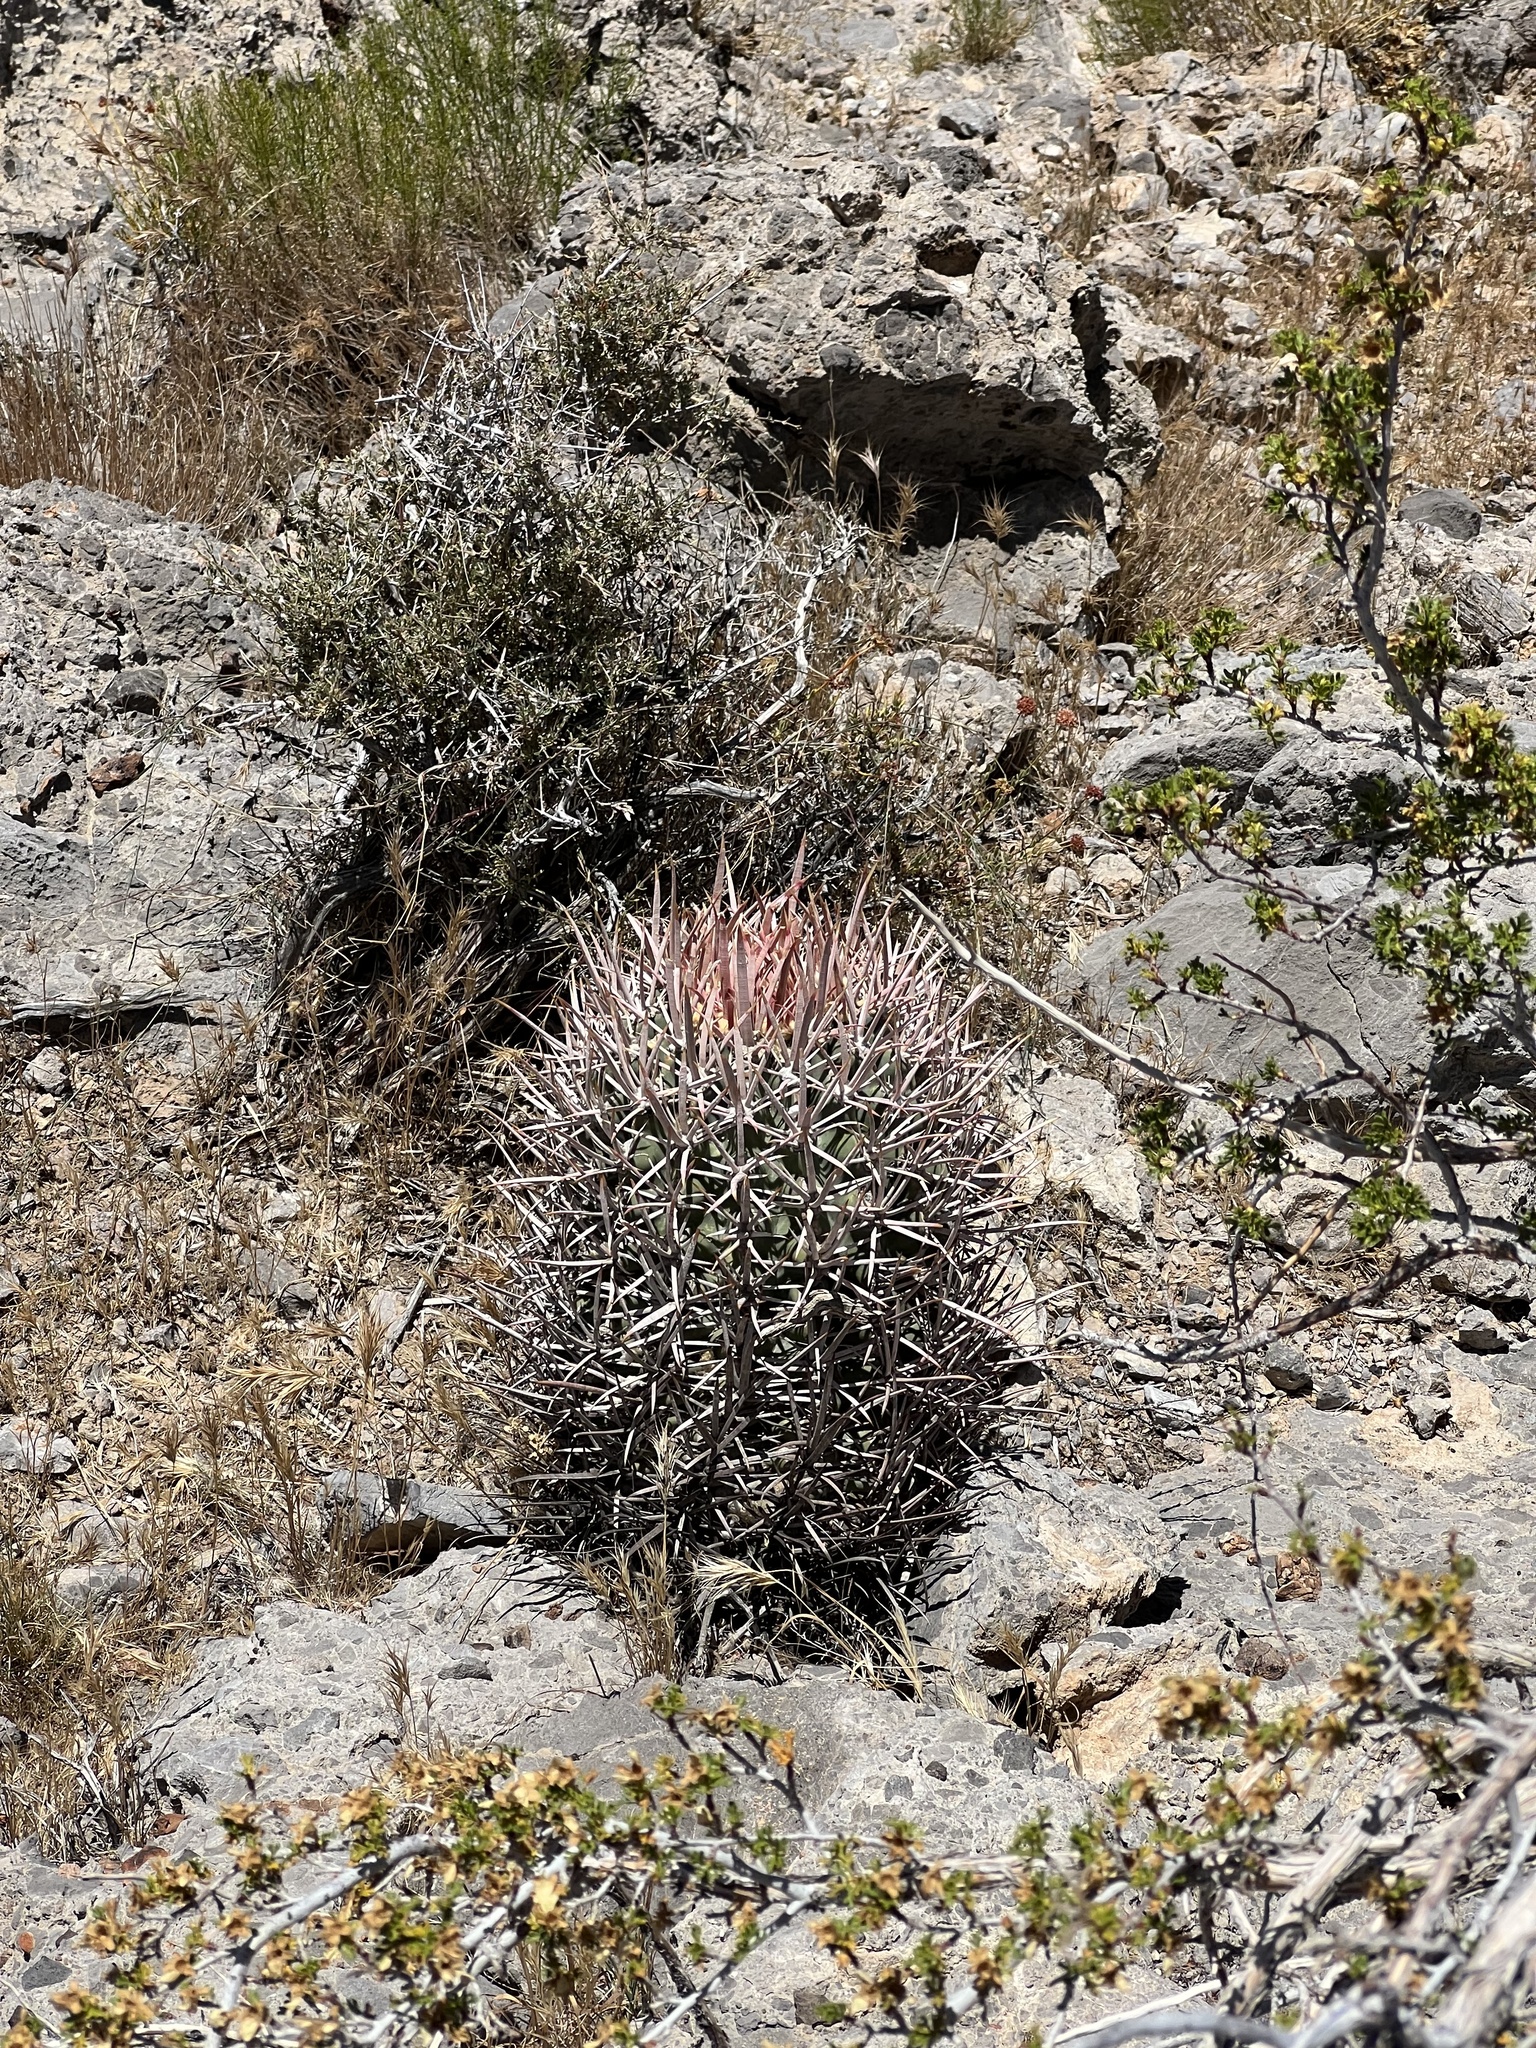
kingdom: Plantae
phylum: Tracheophyta
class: Magnoliopsida
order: Caryophyllales
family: Cactaceae
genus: Echinocactus
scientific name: Echinocactus polycephalus
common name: Cottontop cactus
